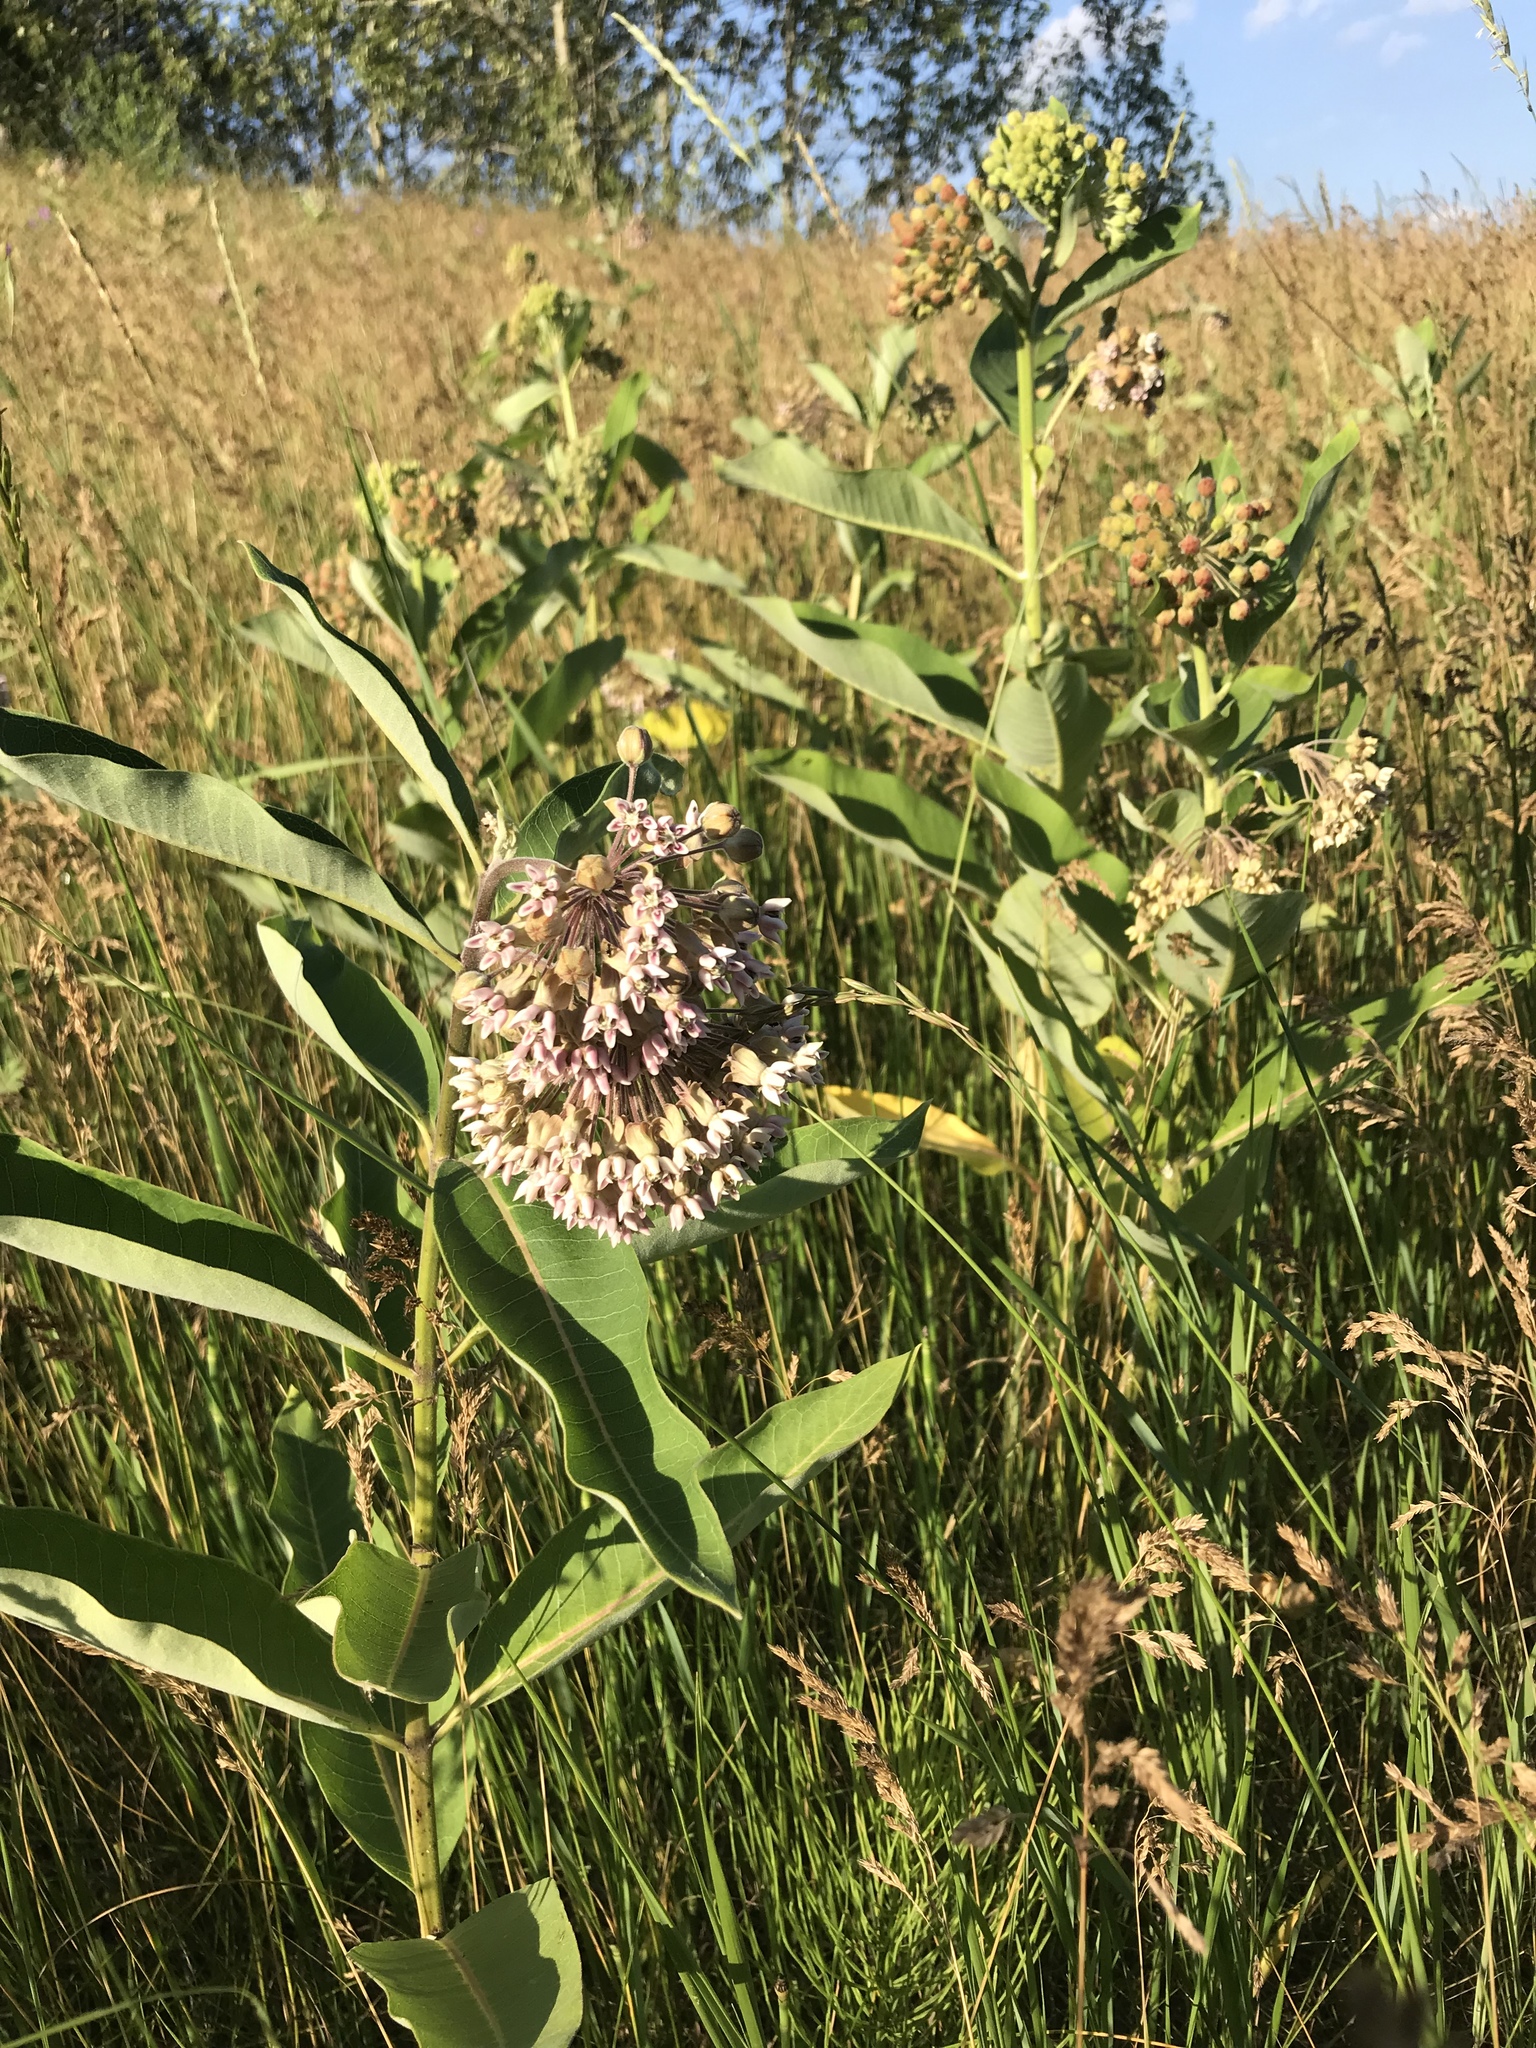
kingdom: Plantae
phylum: Tracheophyta
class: Magnoliopsida
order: Gentianales
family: Apocynaceae
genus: Asclepias
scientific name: Asclepias syriaca
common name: Common milkweed
